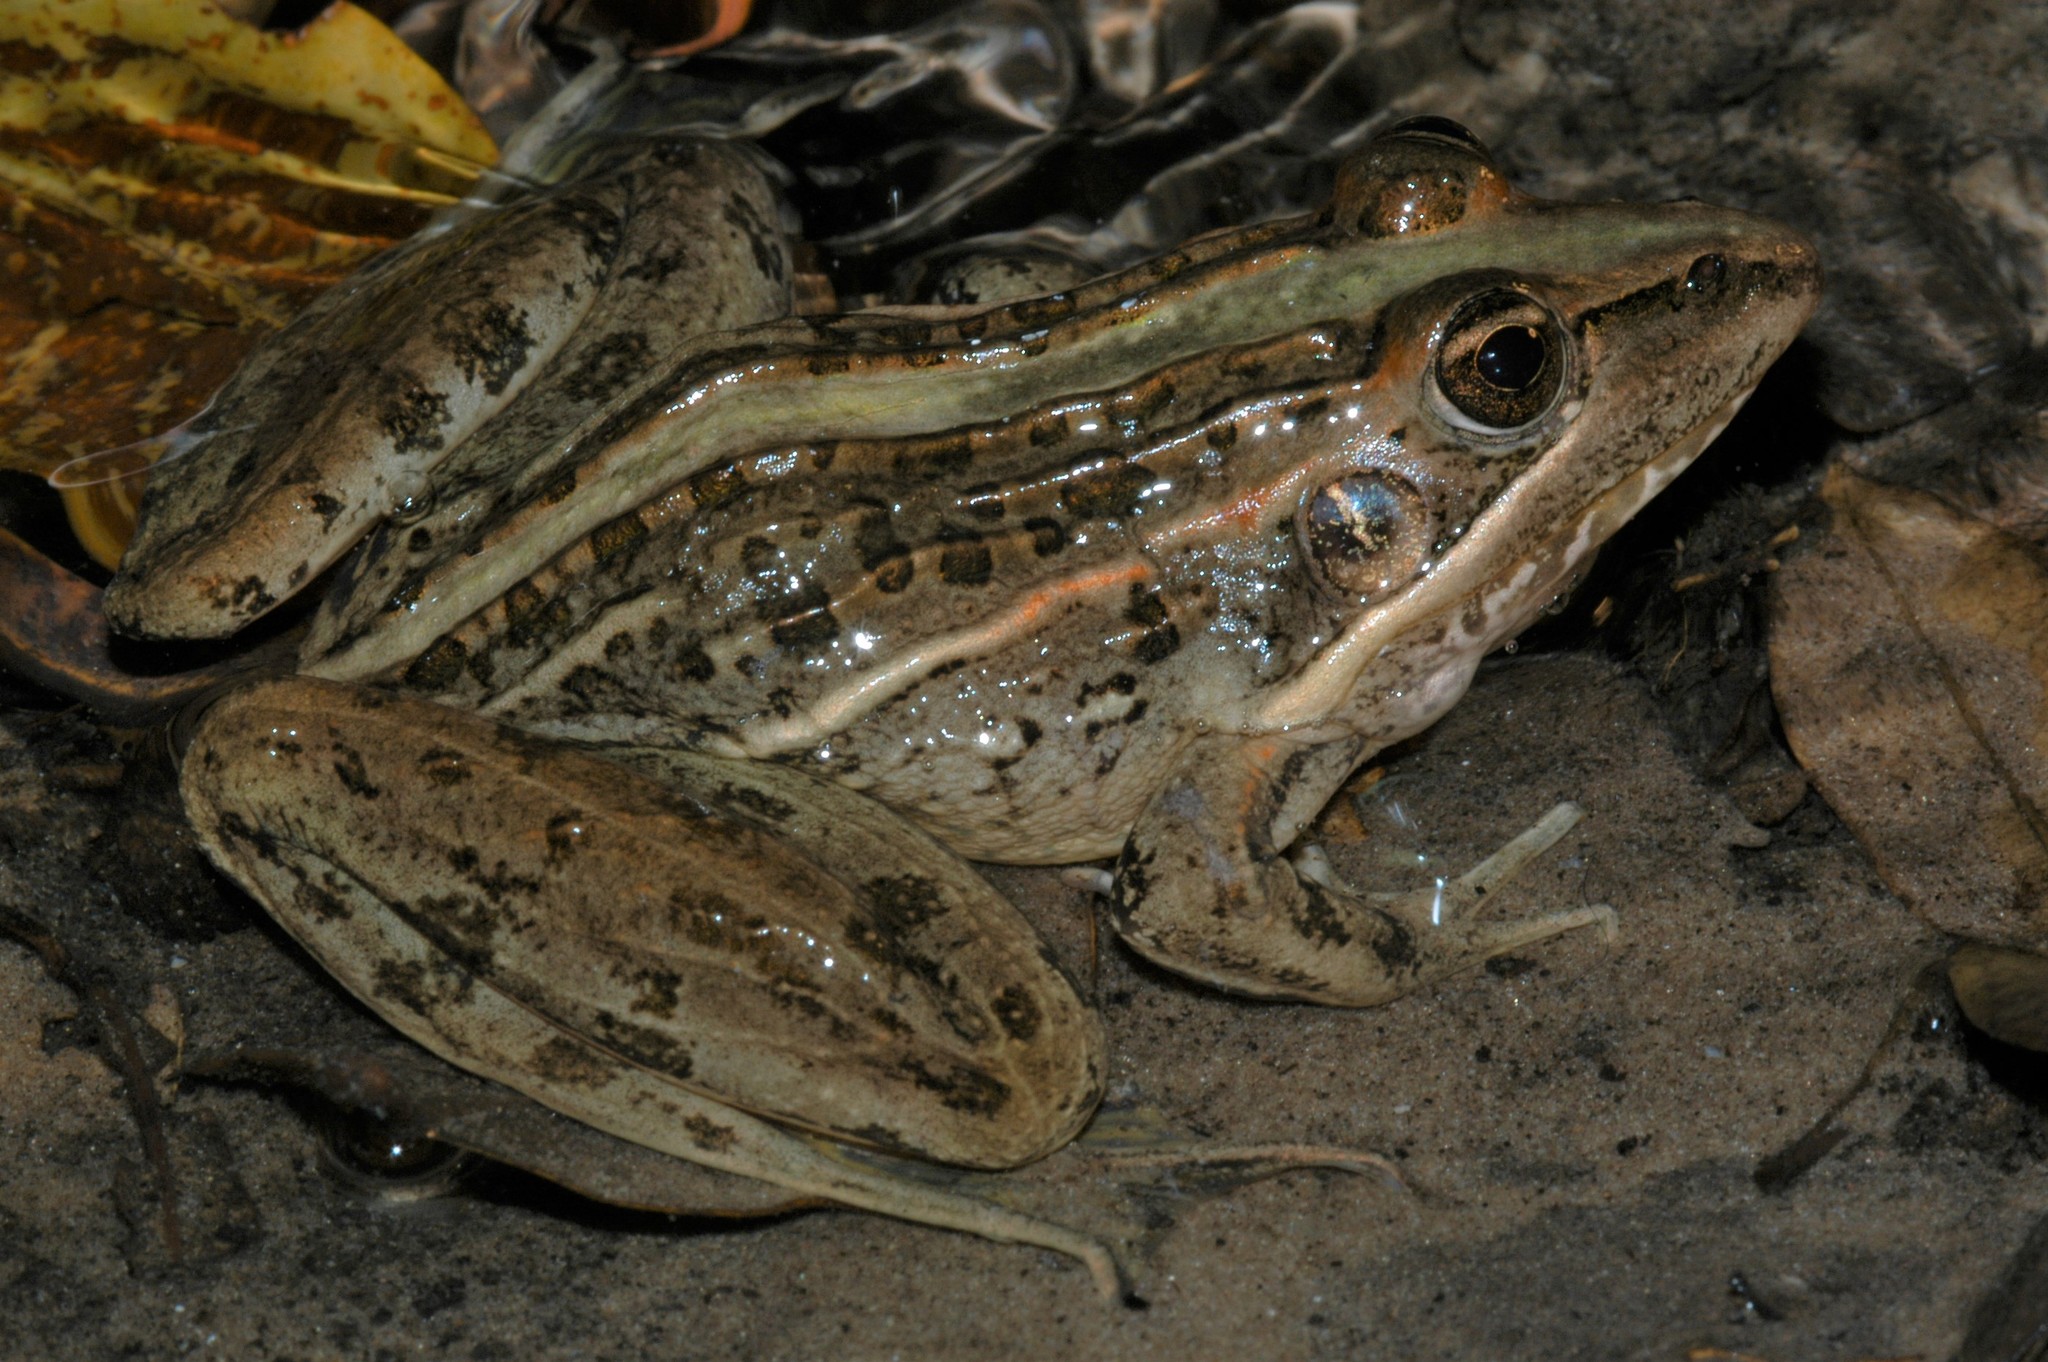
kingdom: Animalia
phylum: Chordata
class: Amphibia
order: Anura
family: Ptychadenidae
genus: Ptychadena
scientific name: Ptychadena oxyrhynchus
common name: Sharp-nosed ridged frog
